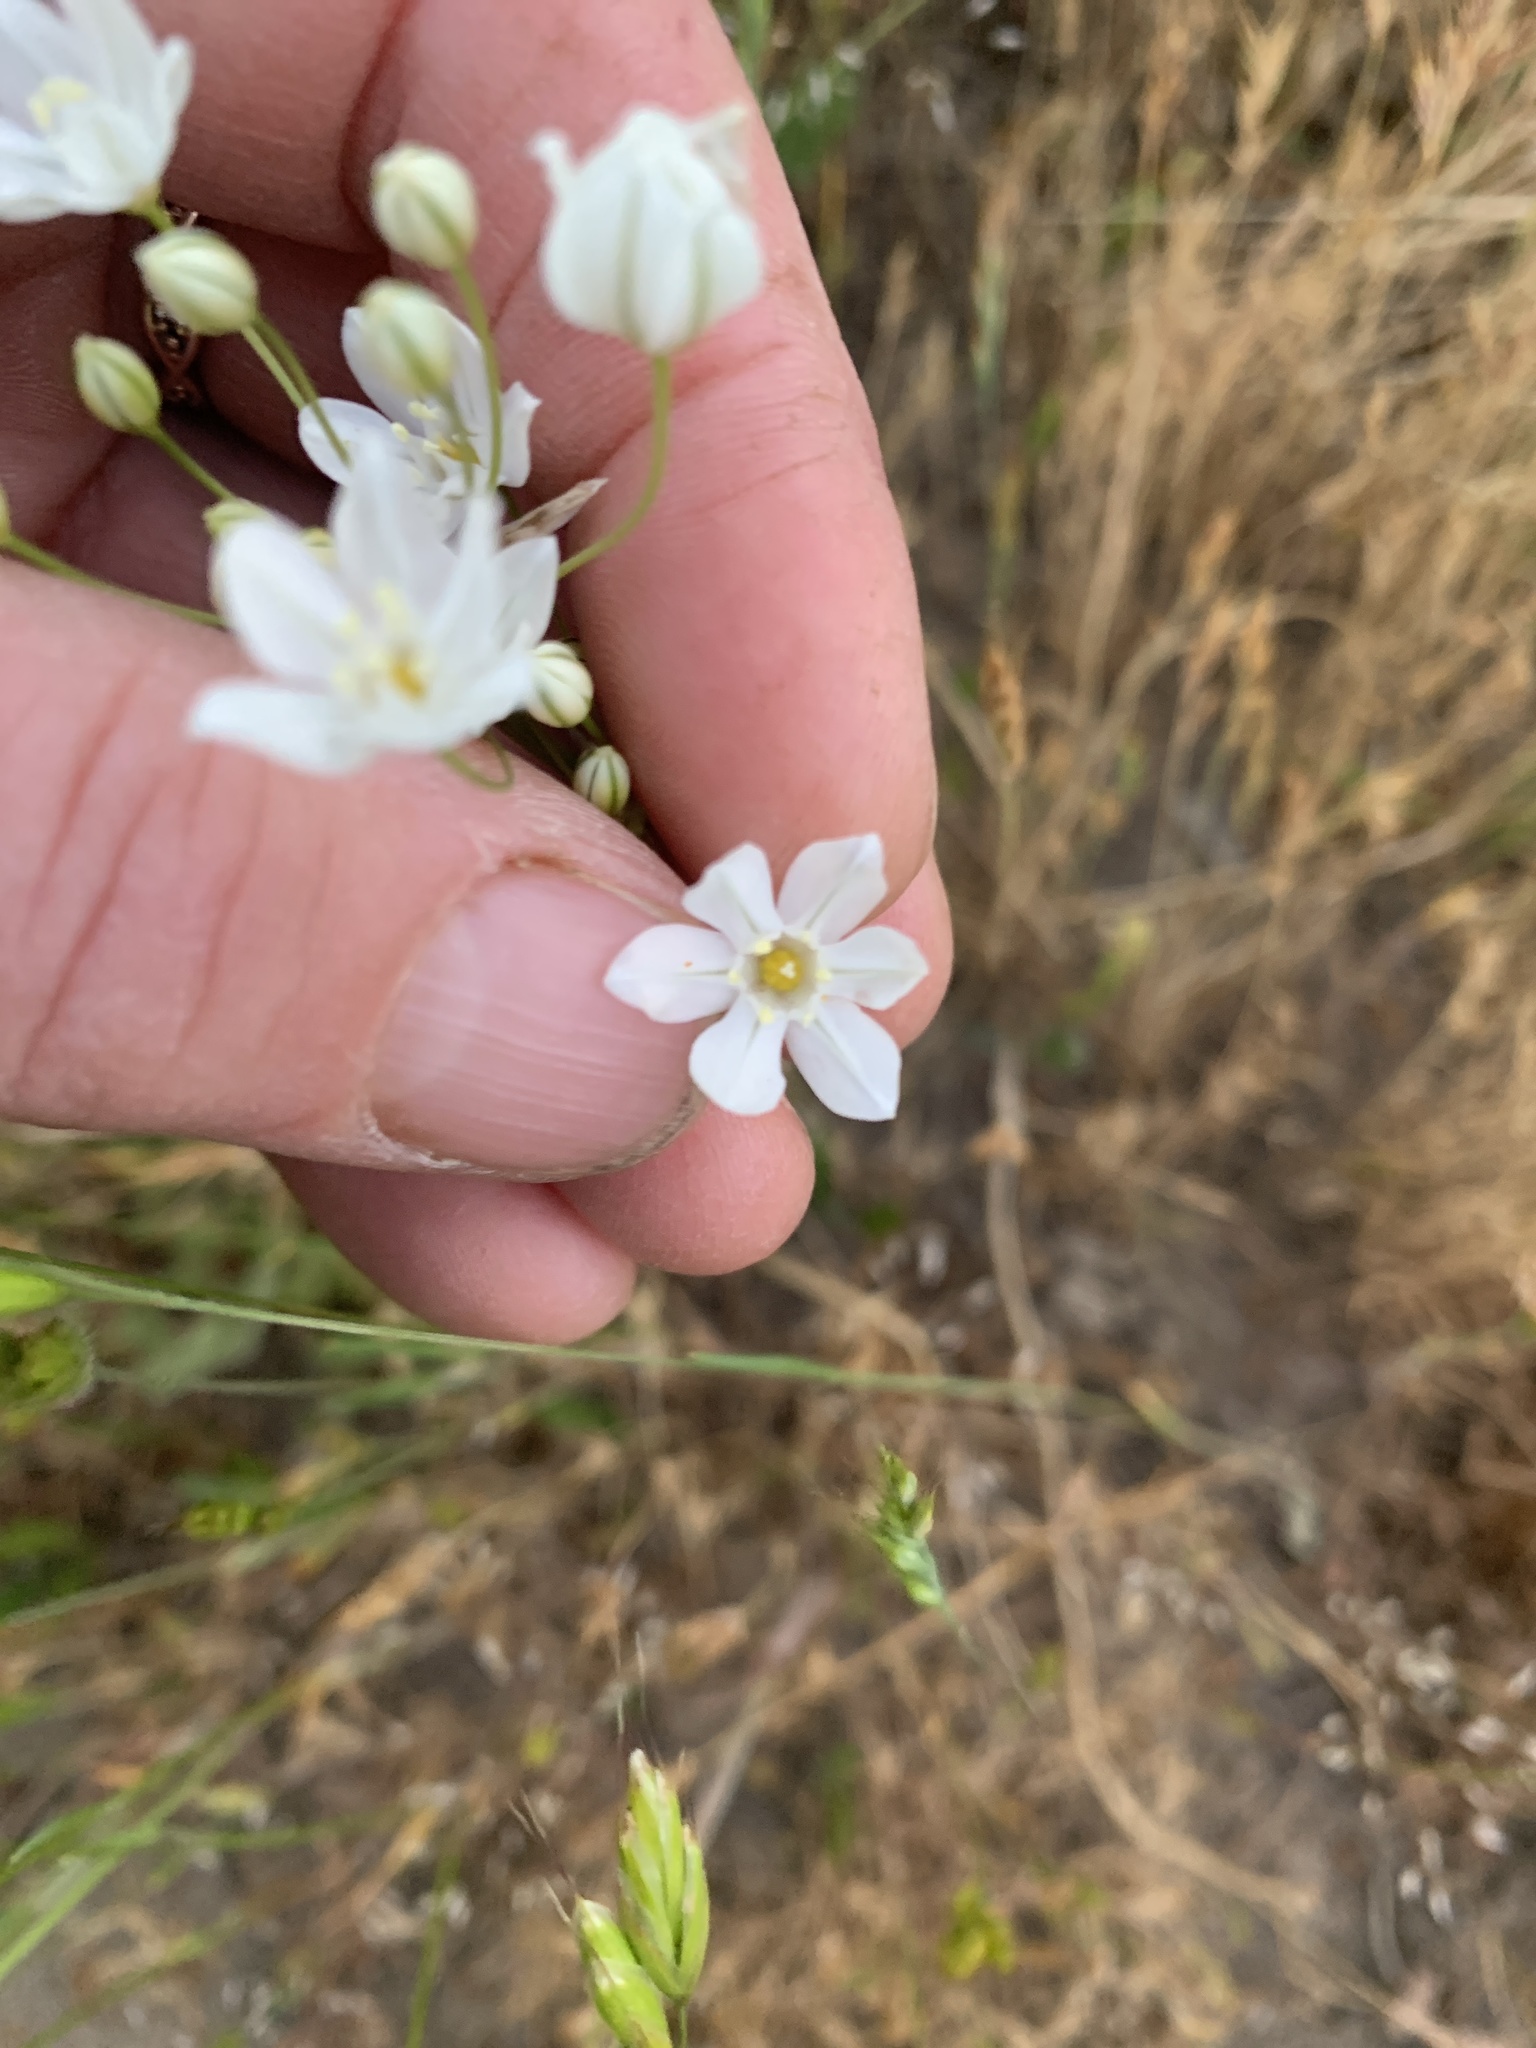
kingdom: Plantae
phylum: Tracheophyta
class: Liliopsida
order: Asparagales
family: Asparagaceae
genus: Triteleia
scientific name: Triteleia hyacinthina
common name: White brodiaea
